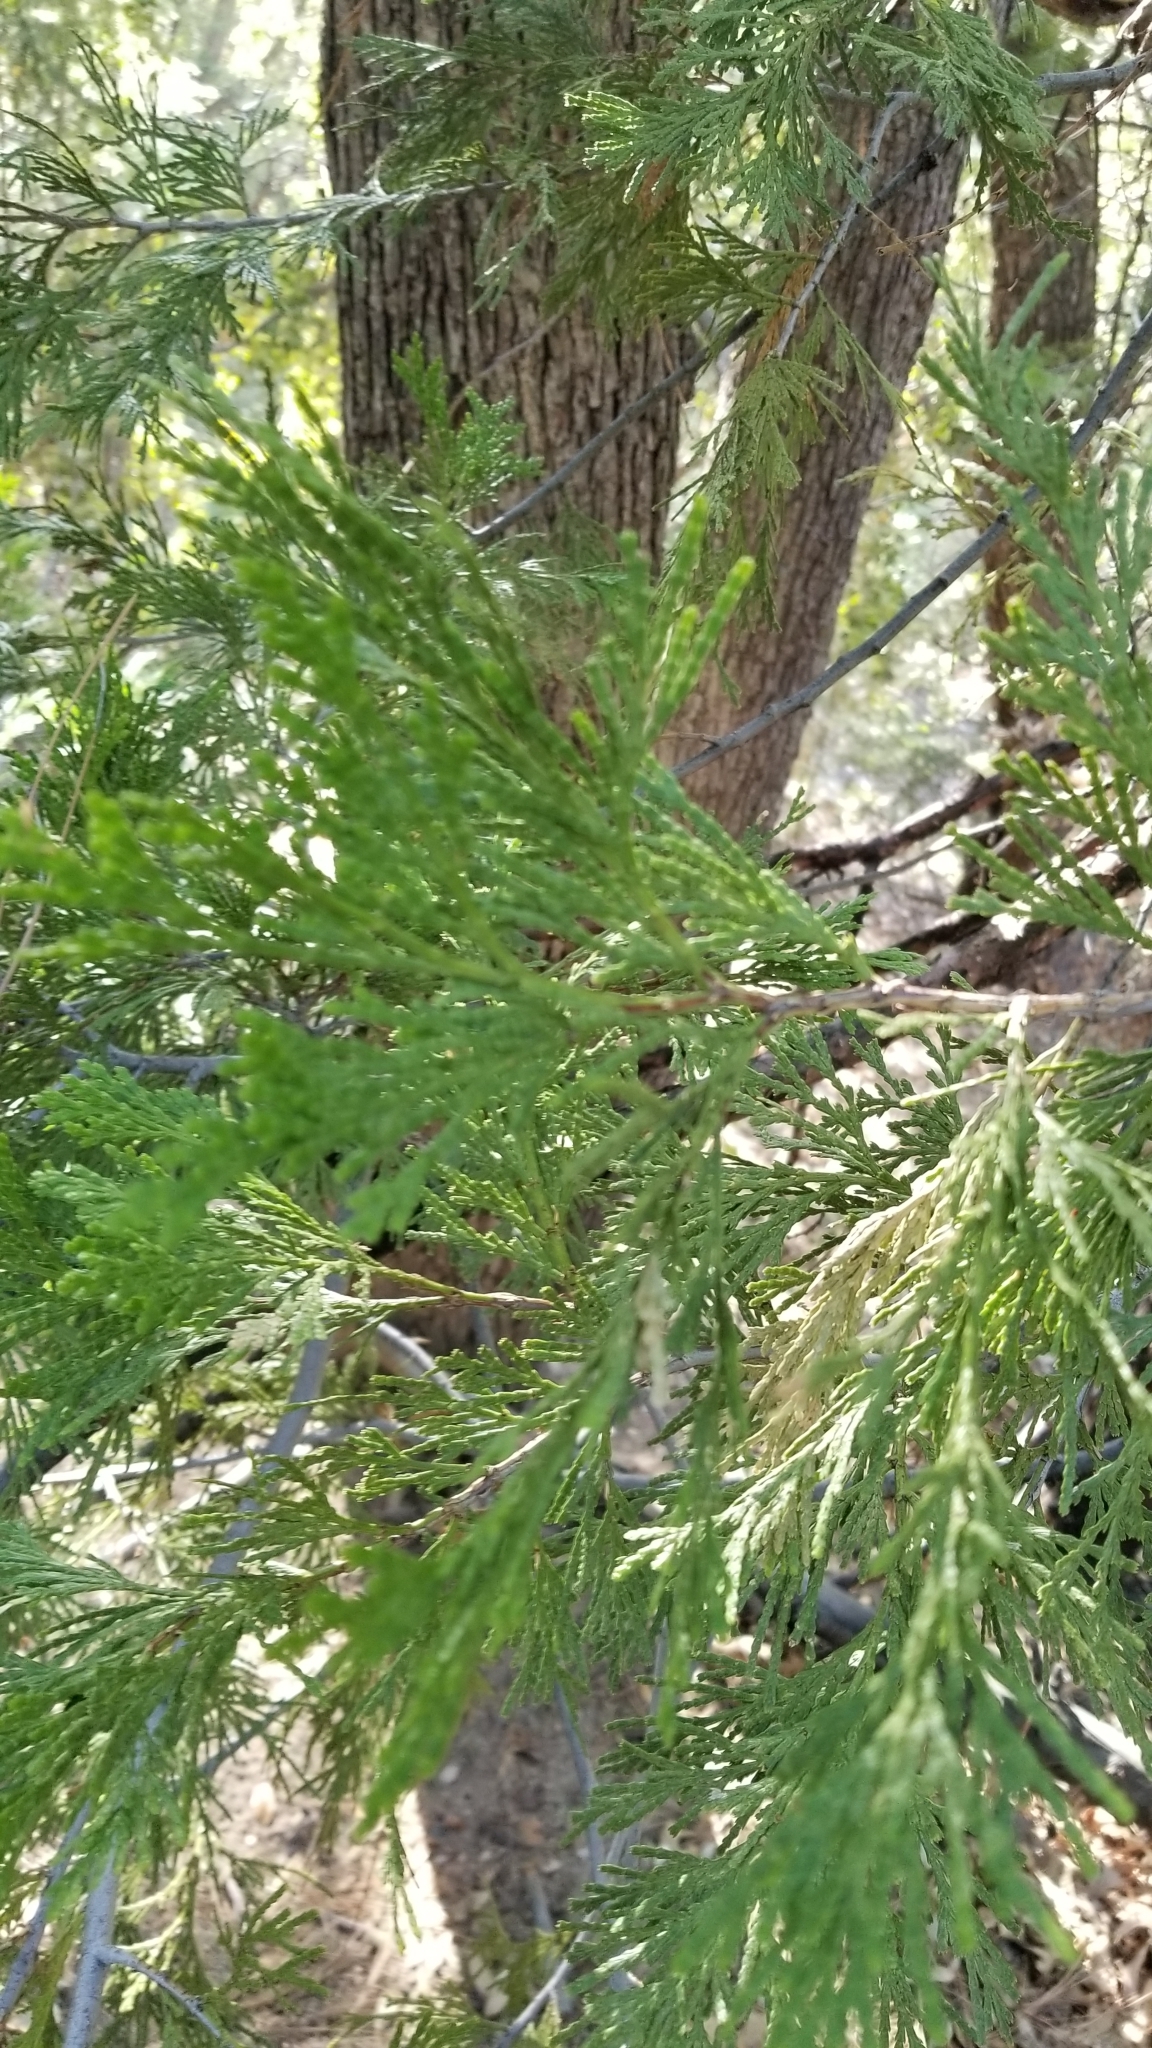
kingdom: Plantae
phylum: Tracheophyta
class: Pinopsida
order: Pinales
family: Cupressaceae
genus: Calocedrus
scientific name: Calocedrus decurrens
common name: Californian incense-cedar
